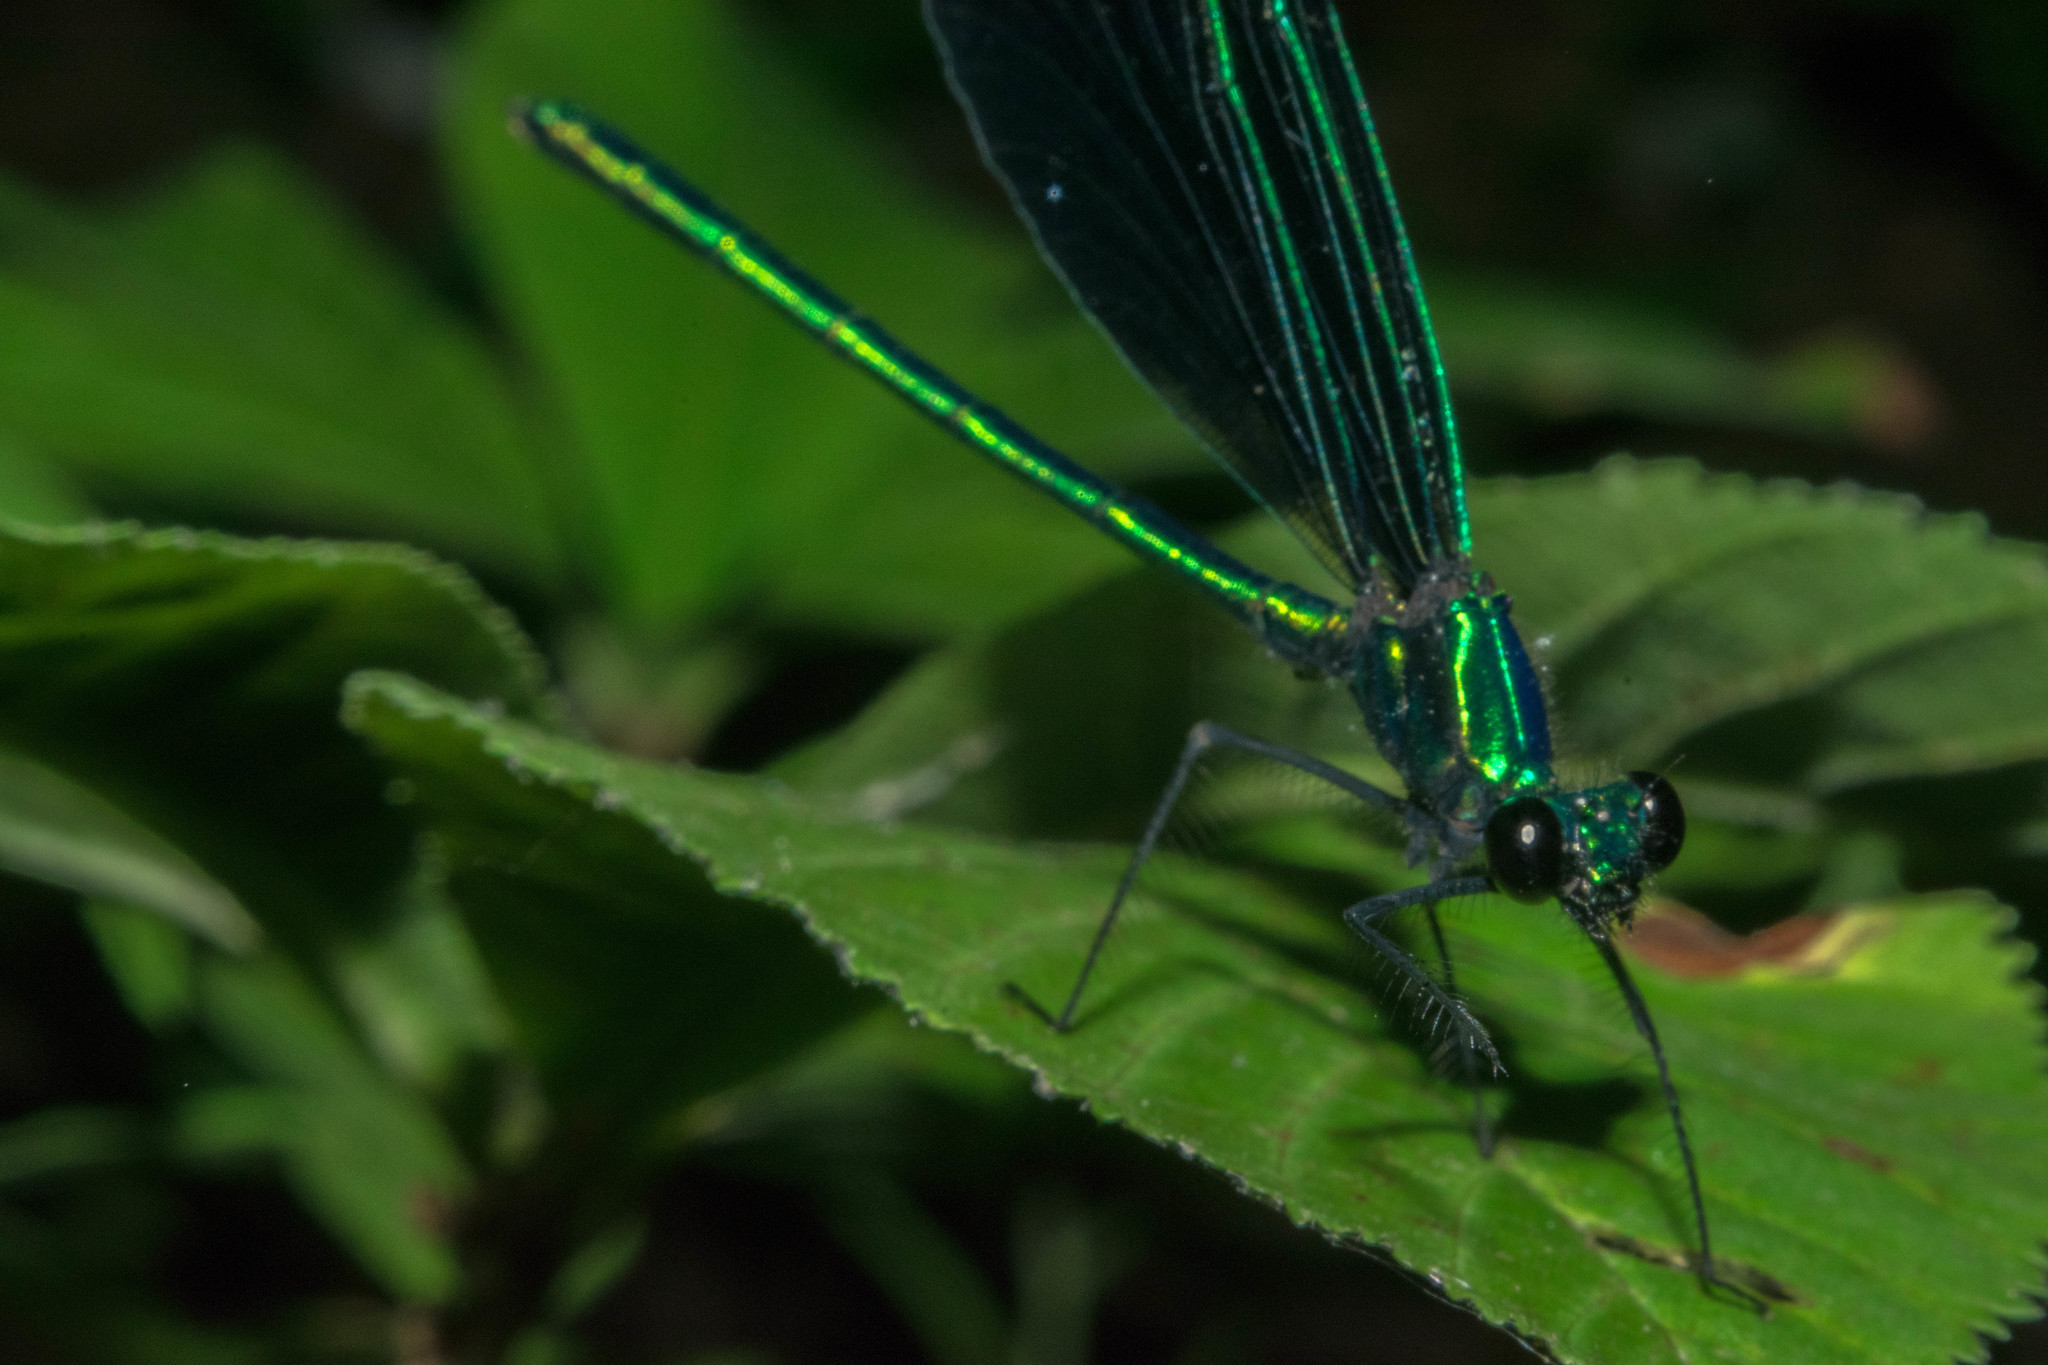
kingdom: Animalia
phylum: Arthropoda
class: Insecta
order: Odonata
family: Calopterygidae
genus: Calopteryx
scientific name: Calopteryx maculata
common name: Ebony jewelwing
